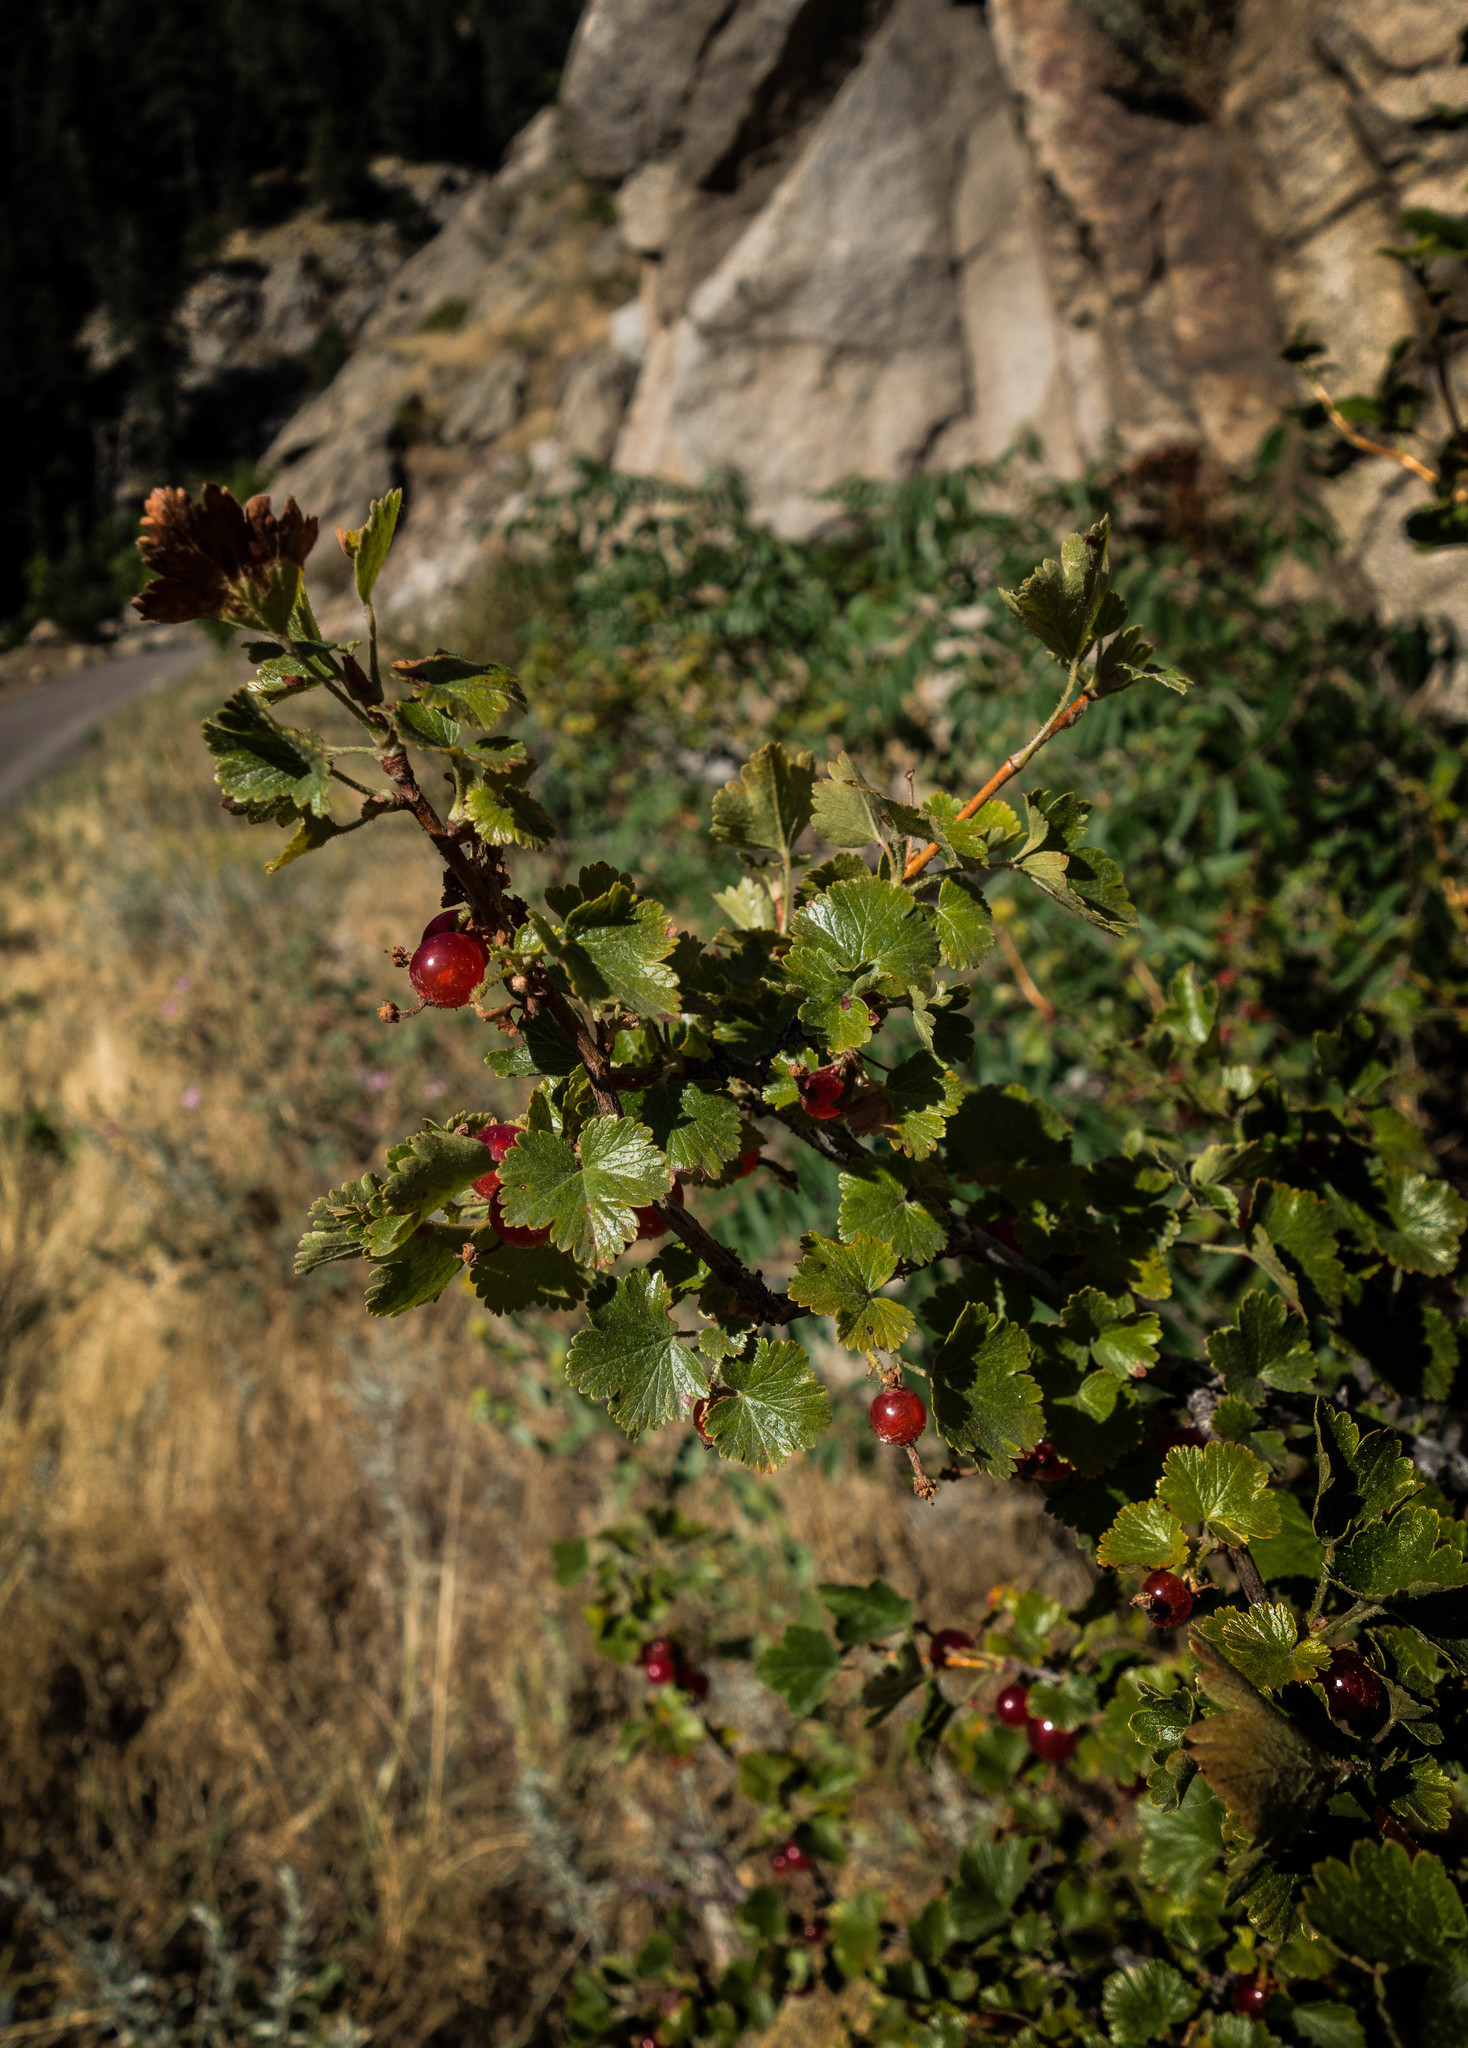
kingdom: Plantae
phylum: Tracheophyta
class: Magnoliopsida
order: Saxifragales
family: Grossulariaceae
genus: Ribes
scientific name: Ribes cereum
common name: Wax currant
